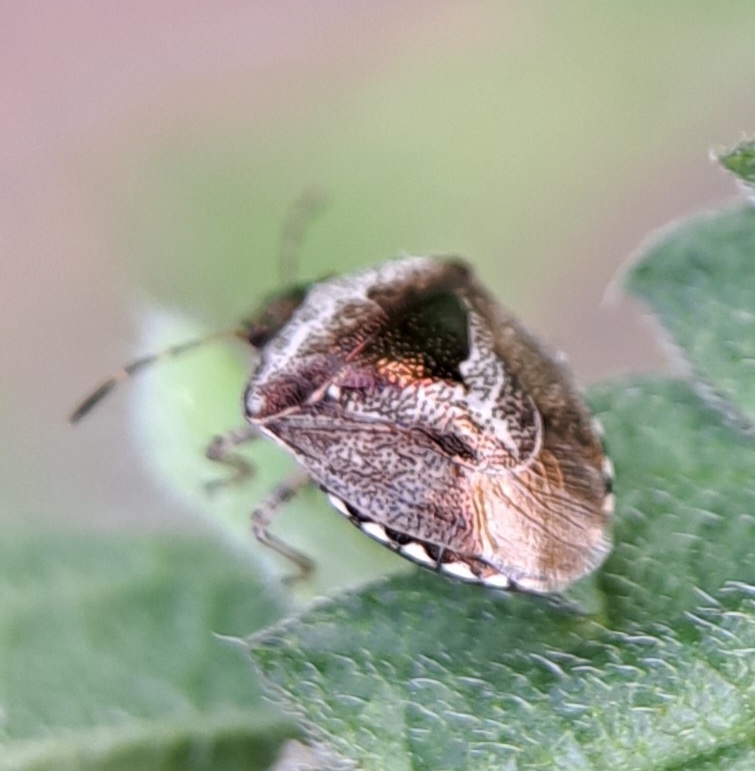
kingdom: Animalia
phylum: Arthropoda
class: Insecta
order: Hemiptera
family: Pentatomidae
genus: Eysarcoris
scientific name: Eysarcoris venustissimus
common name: Woundwort shieldbug
